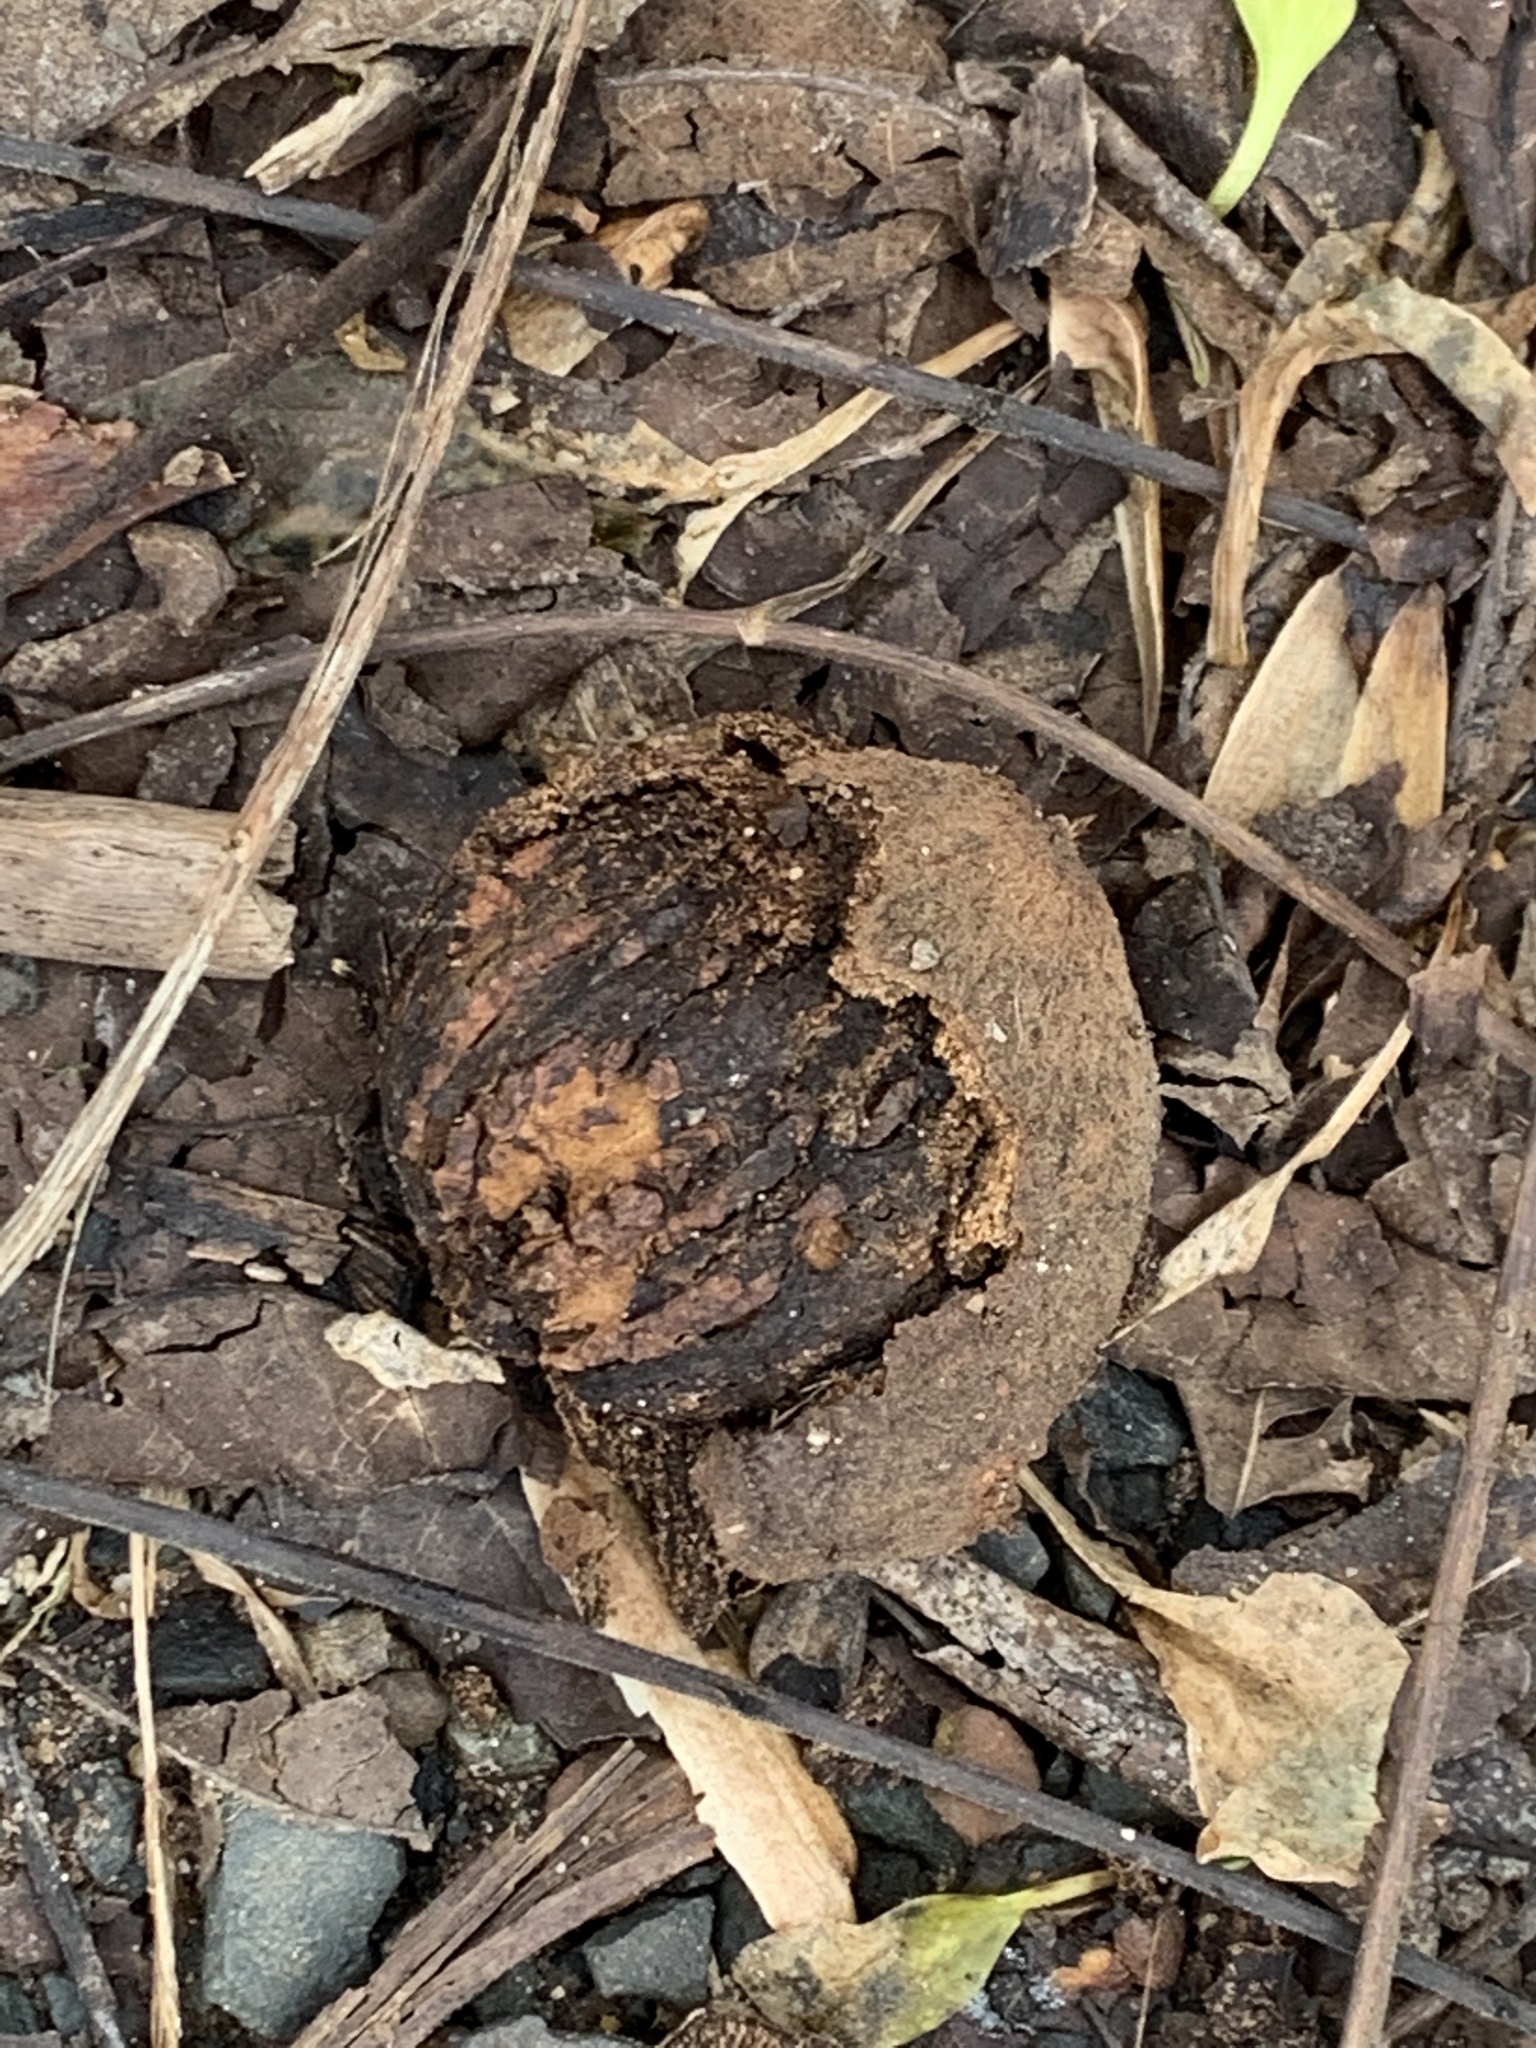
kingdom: Plantae
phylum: Tracheophyta
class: Magnoliopsida
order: Fagales
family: Juglandaceae
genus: Juglans
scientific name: Juglans nigra
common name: Black walnut
